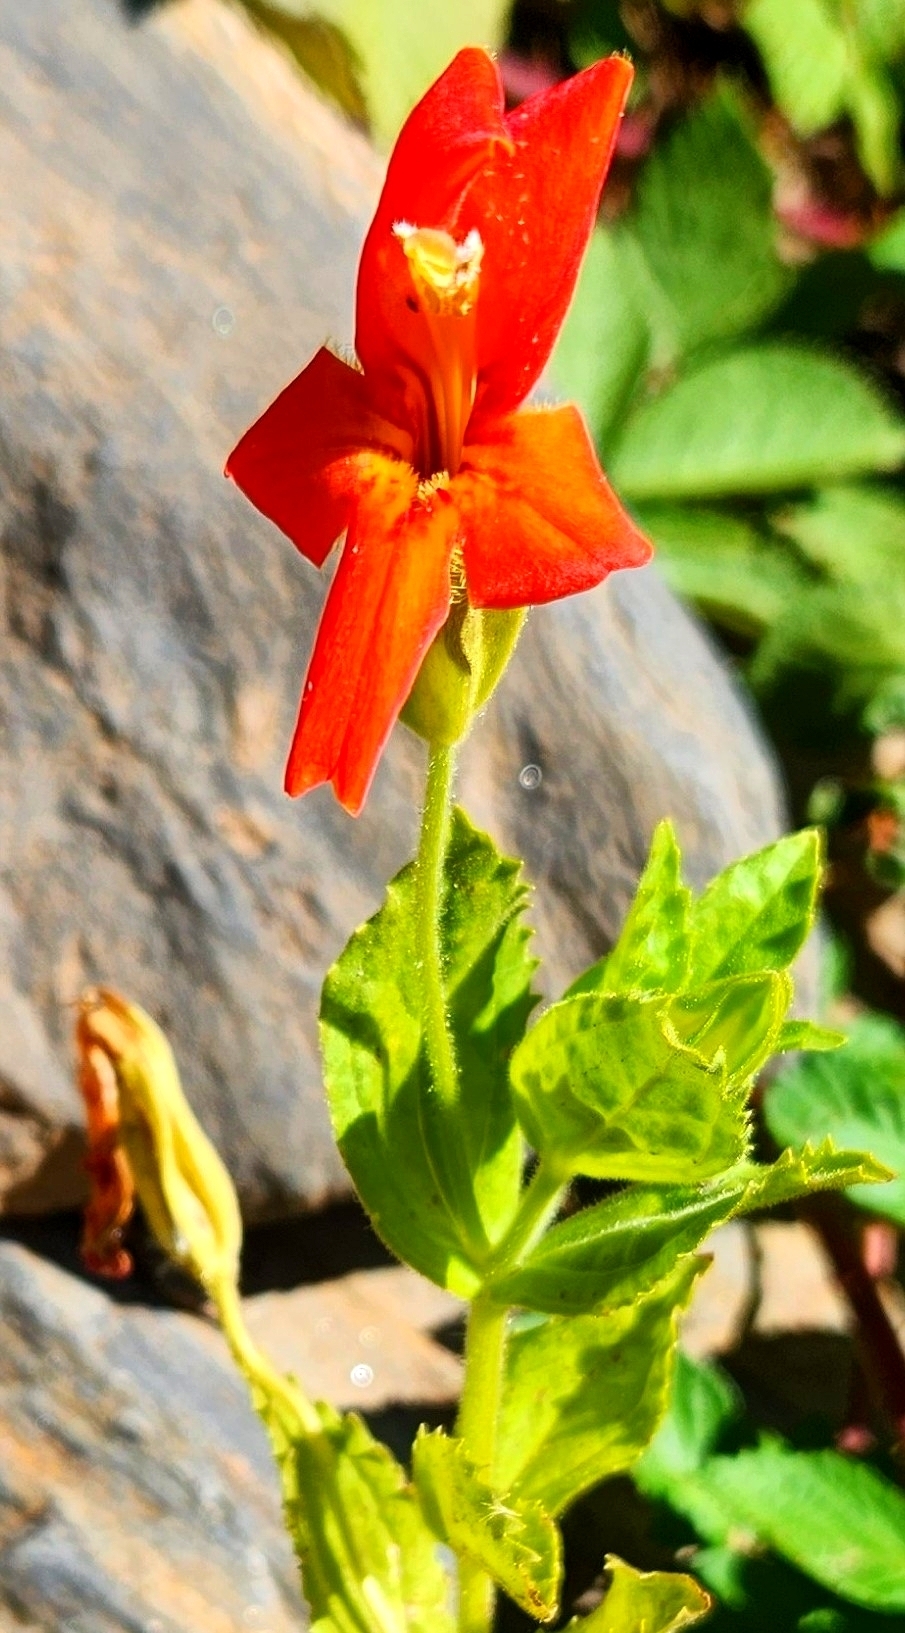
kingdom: Plantae
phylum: Tracheophyta
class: Magnoliopsida
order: Lamiales
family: Phrymaceae
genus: Erythranthe
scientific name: Erythranthe cardinalis
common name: Scarlet monkey-flower
